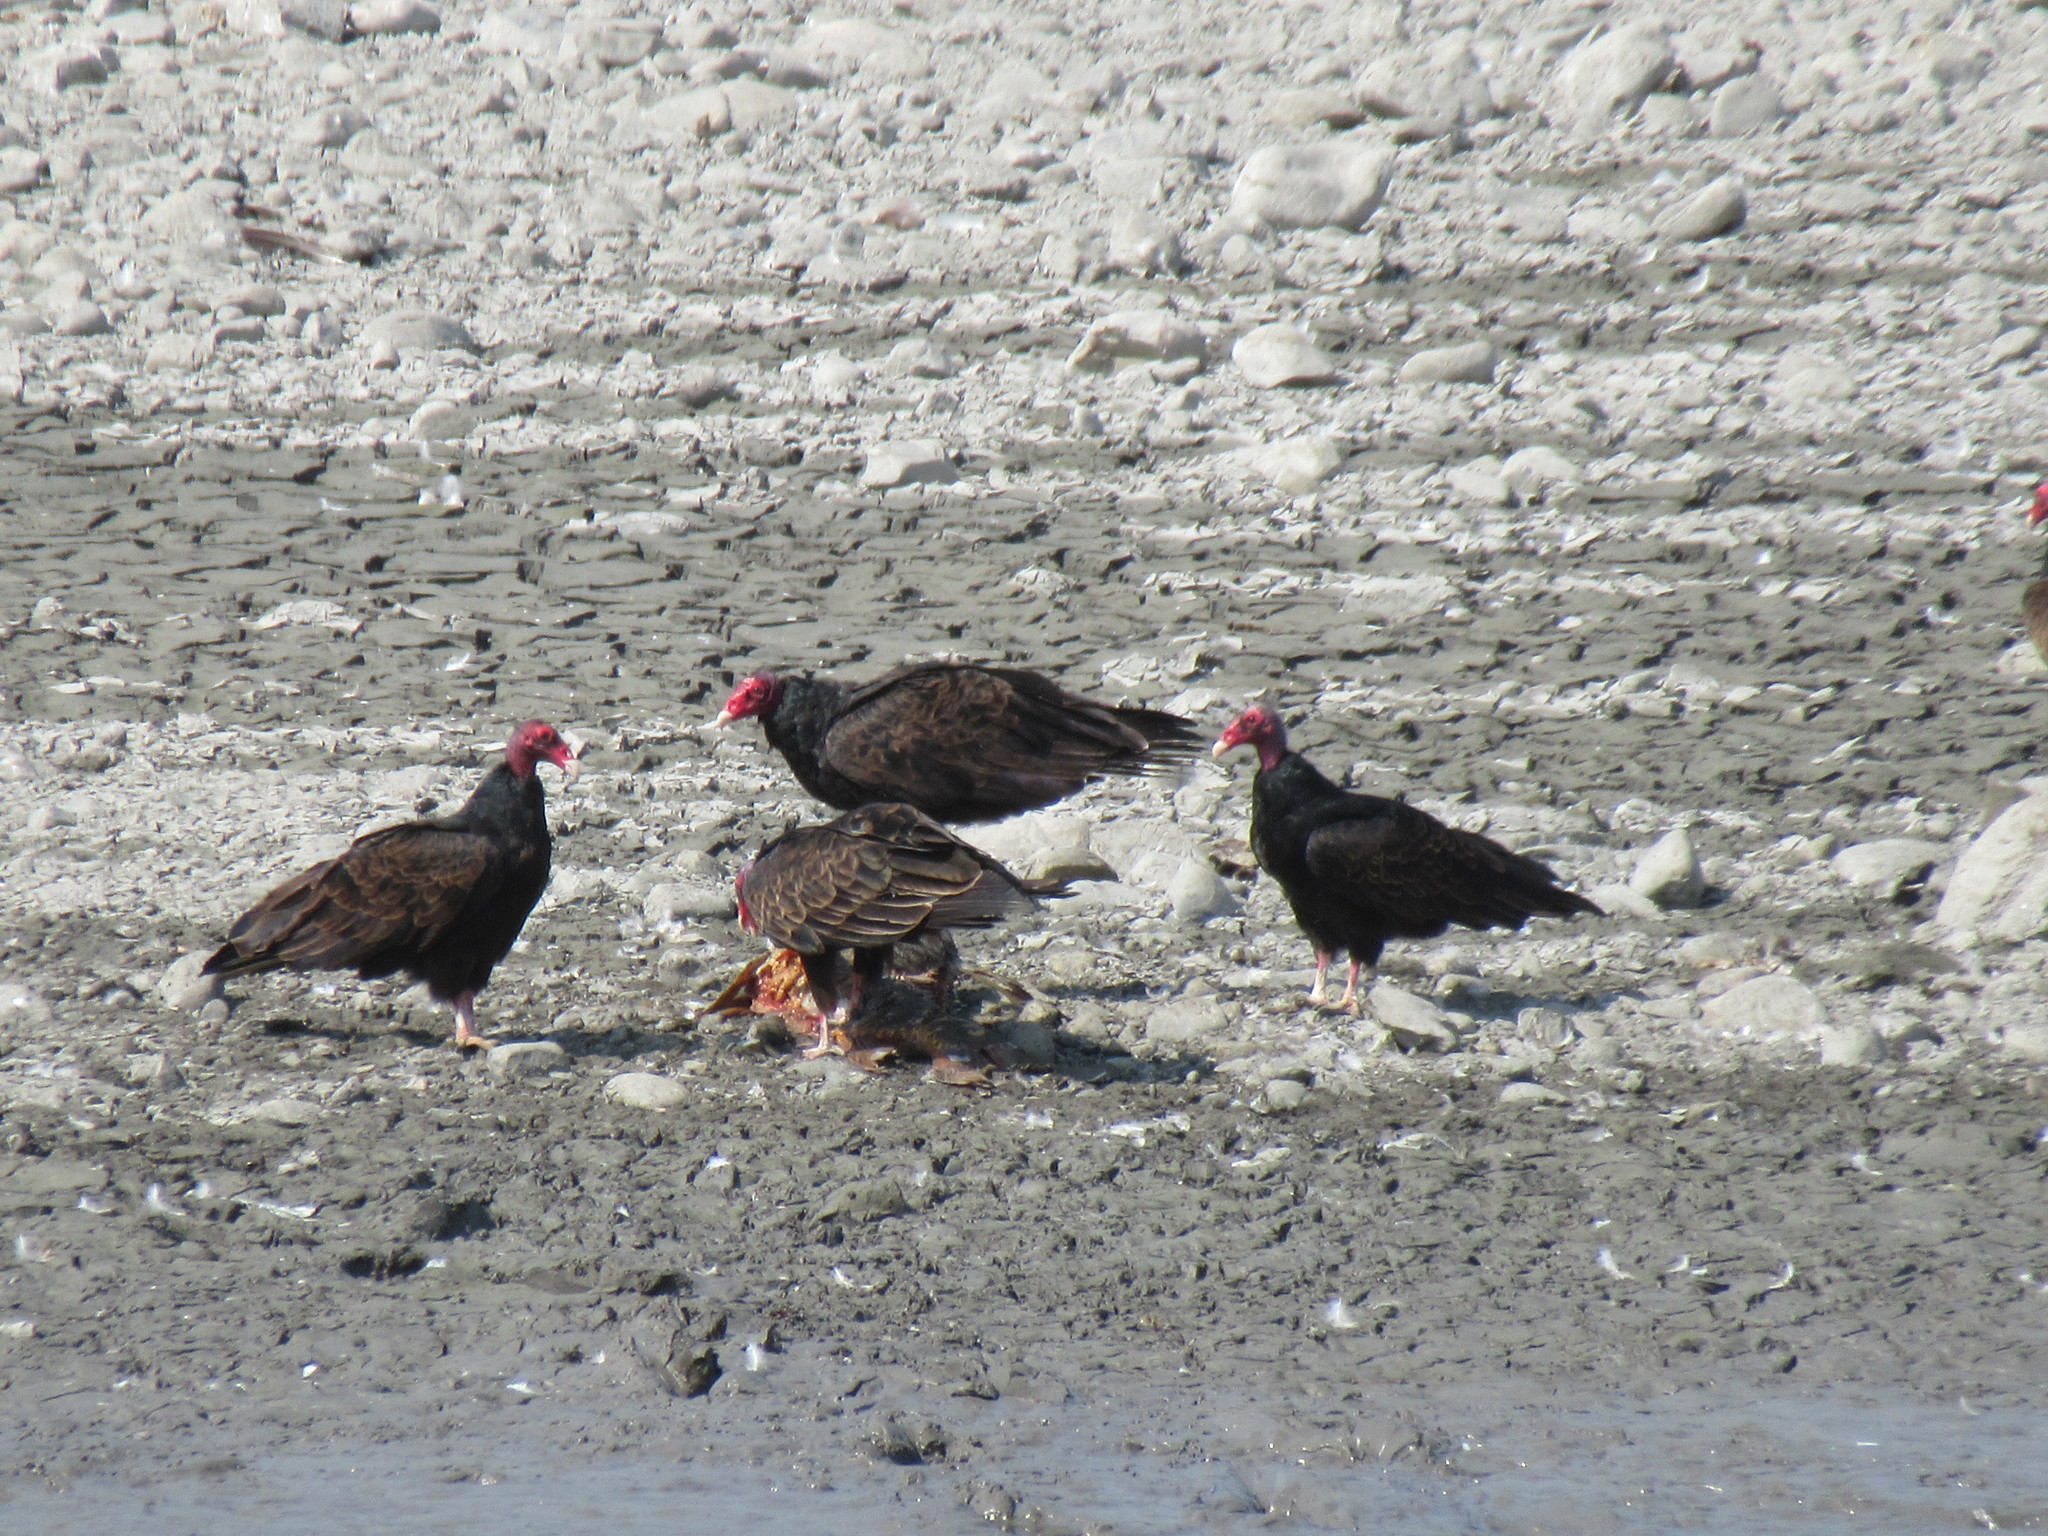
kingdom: Animalia
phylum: Chordata
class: Aves
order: Accipitriformes
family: Cathartidae
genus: Cathartes
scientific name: Cathartes aura
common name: Turkey vulture
